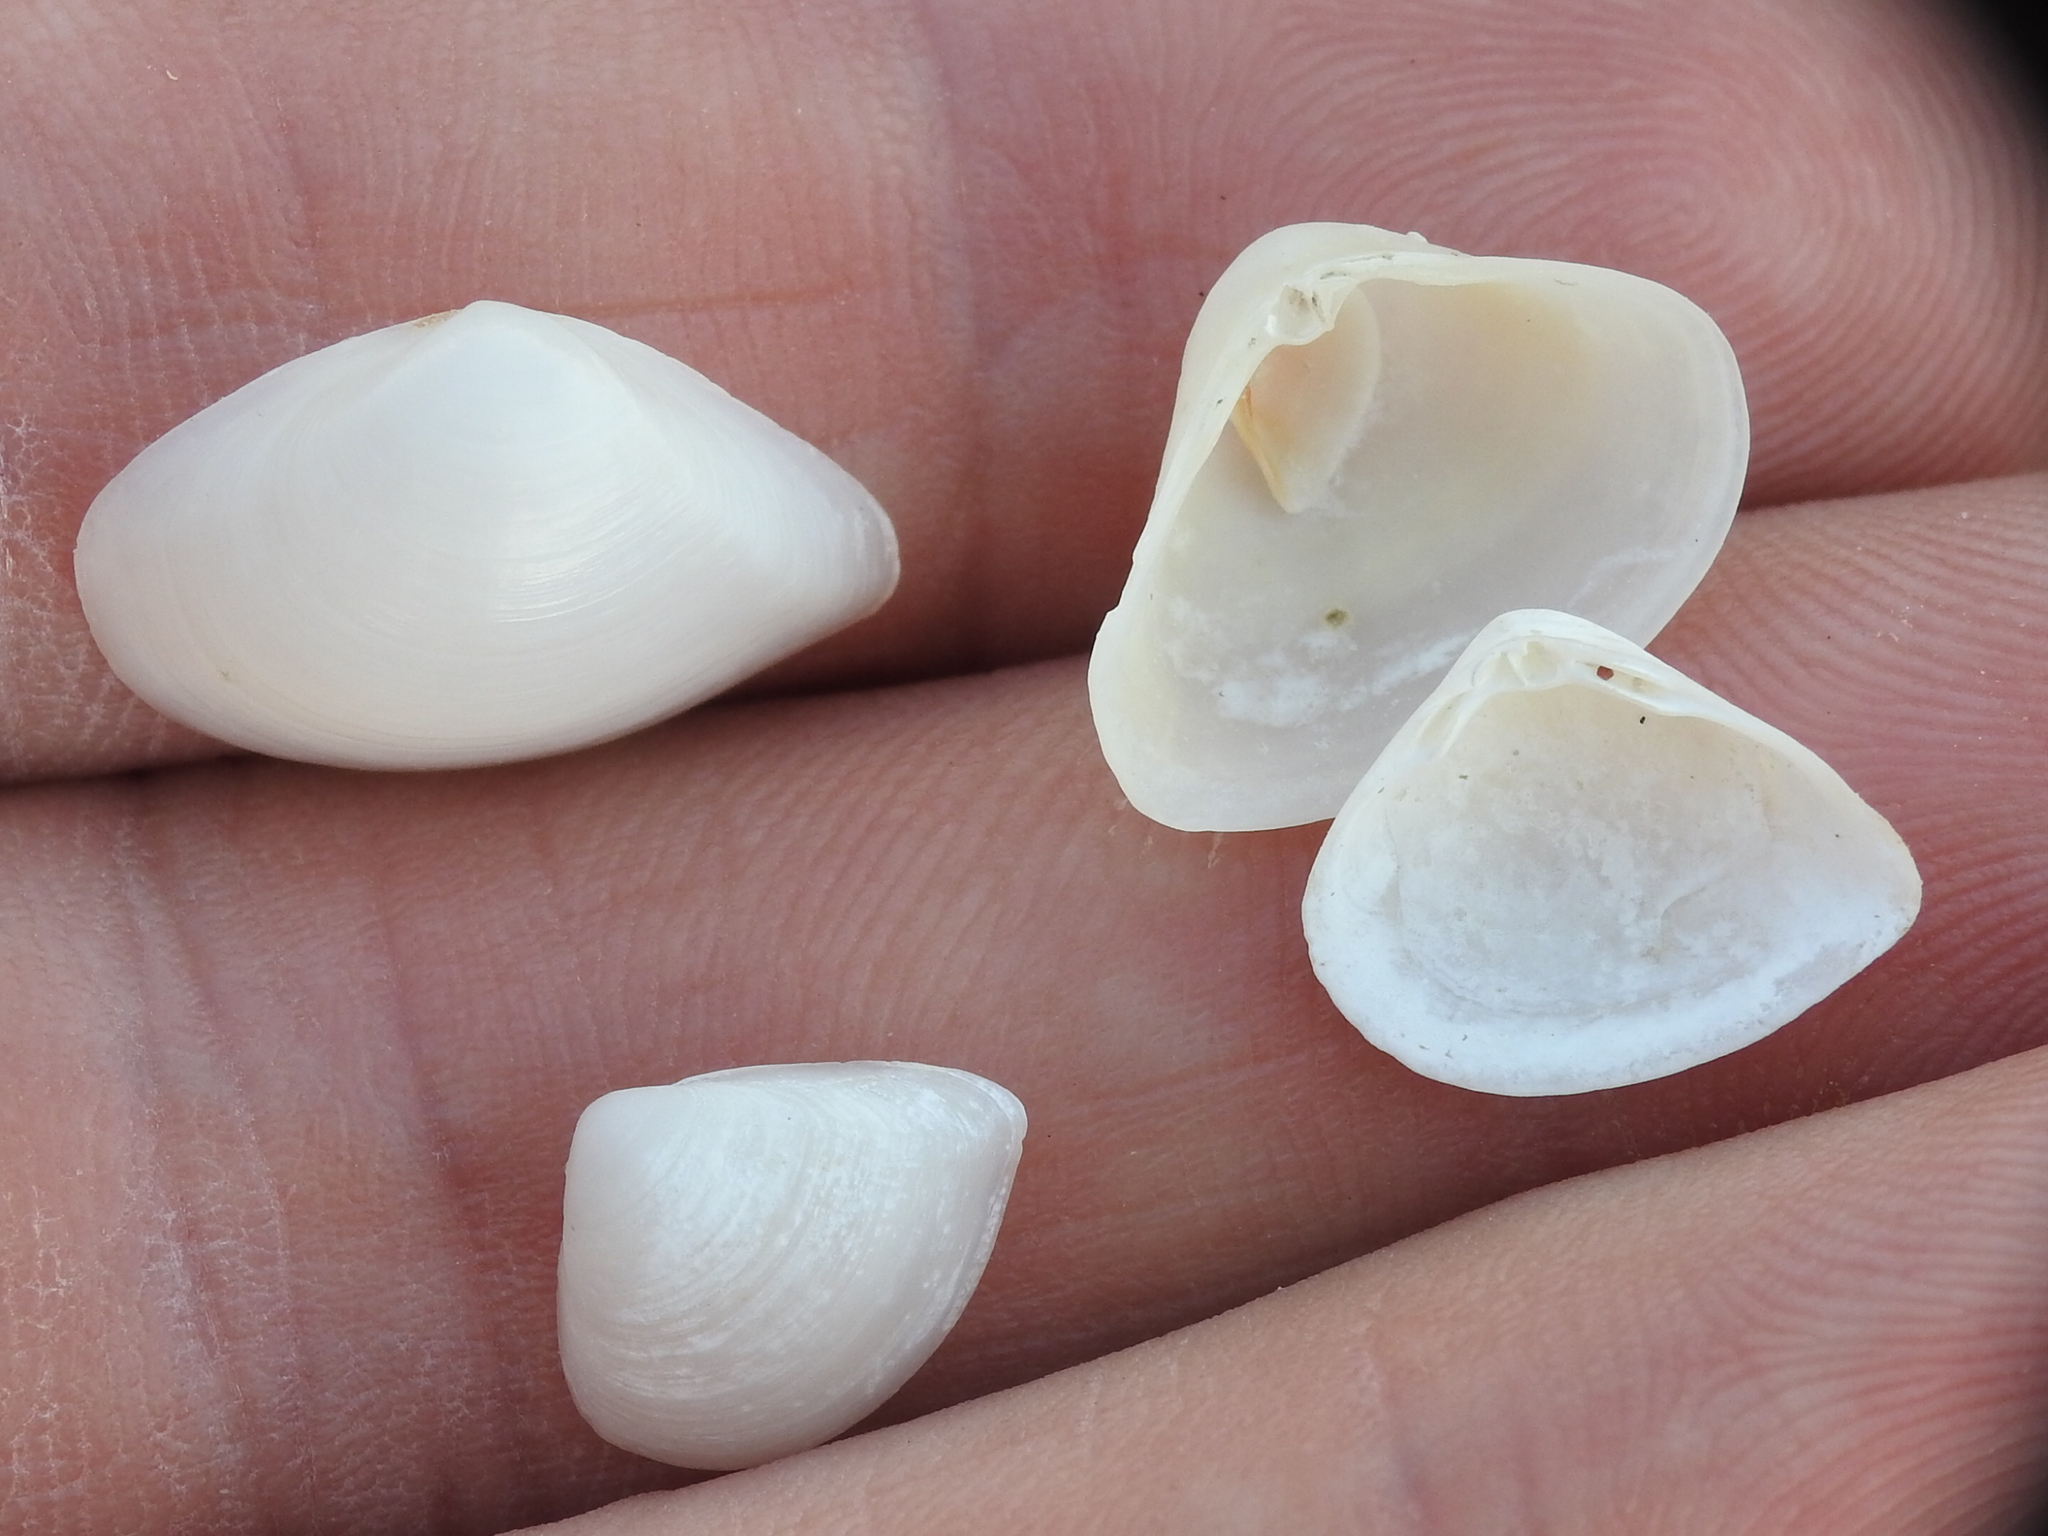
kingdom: Animalia
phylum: Mollusca
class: Bivalvia
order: Venerida
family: Mactridae
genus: Mulinia
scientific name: Mulinia lateralis
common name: Dwarf surfclam
